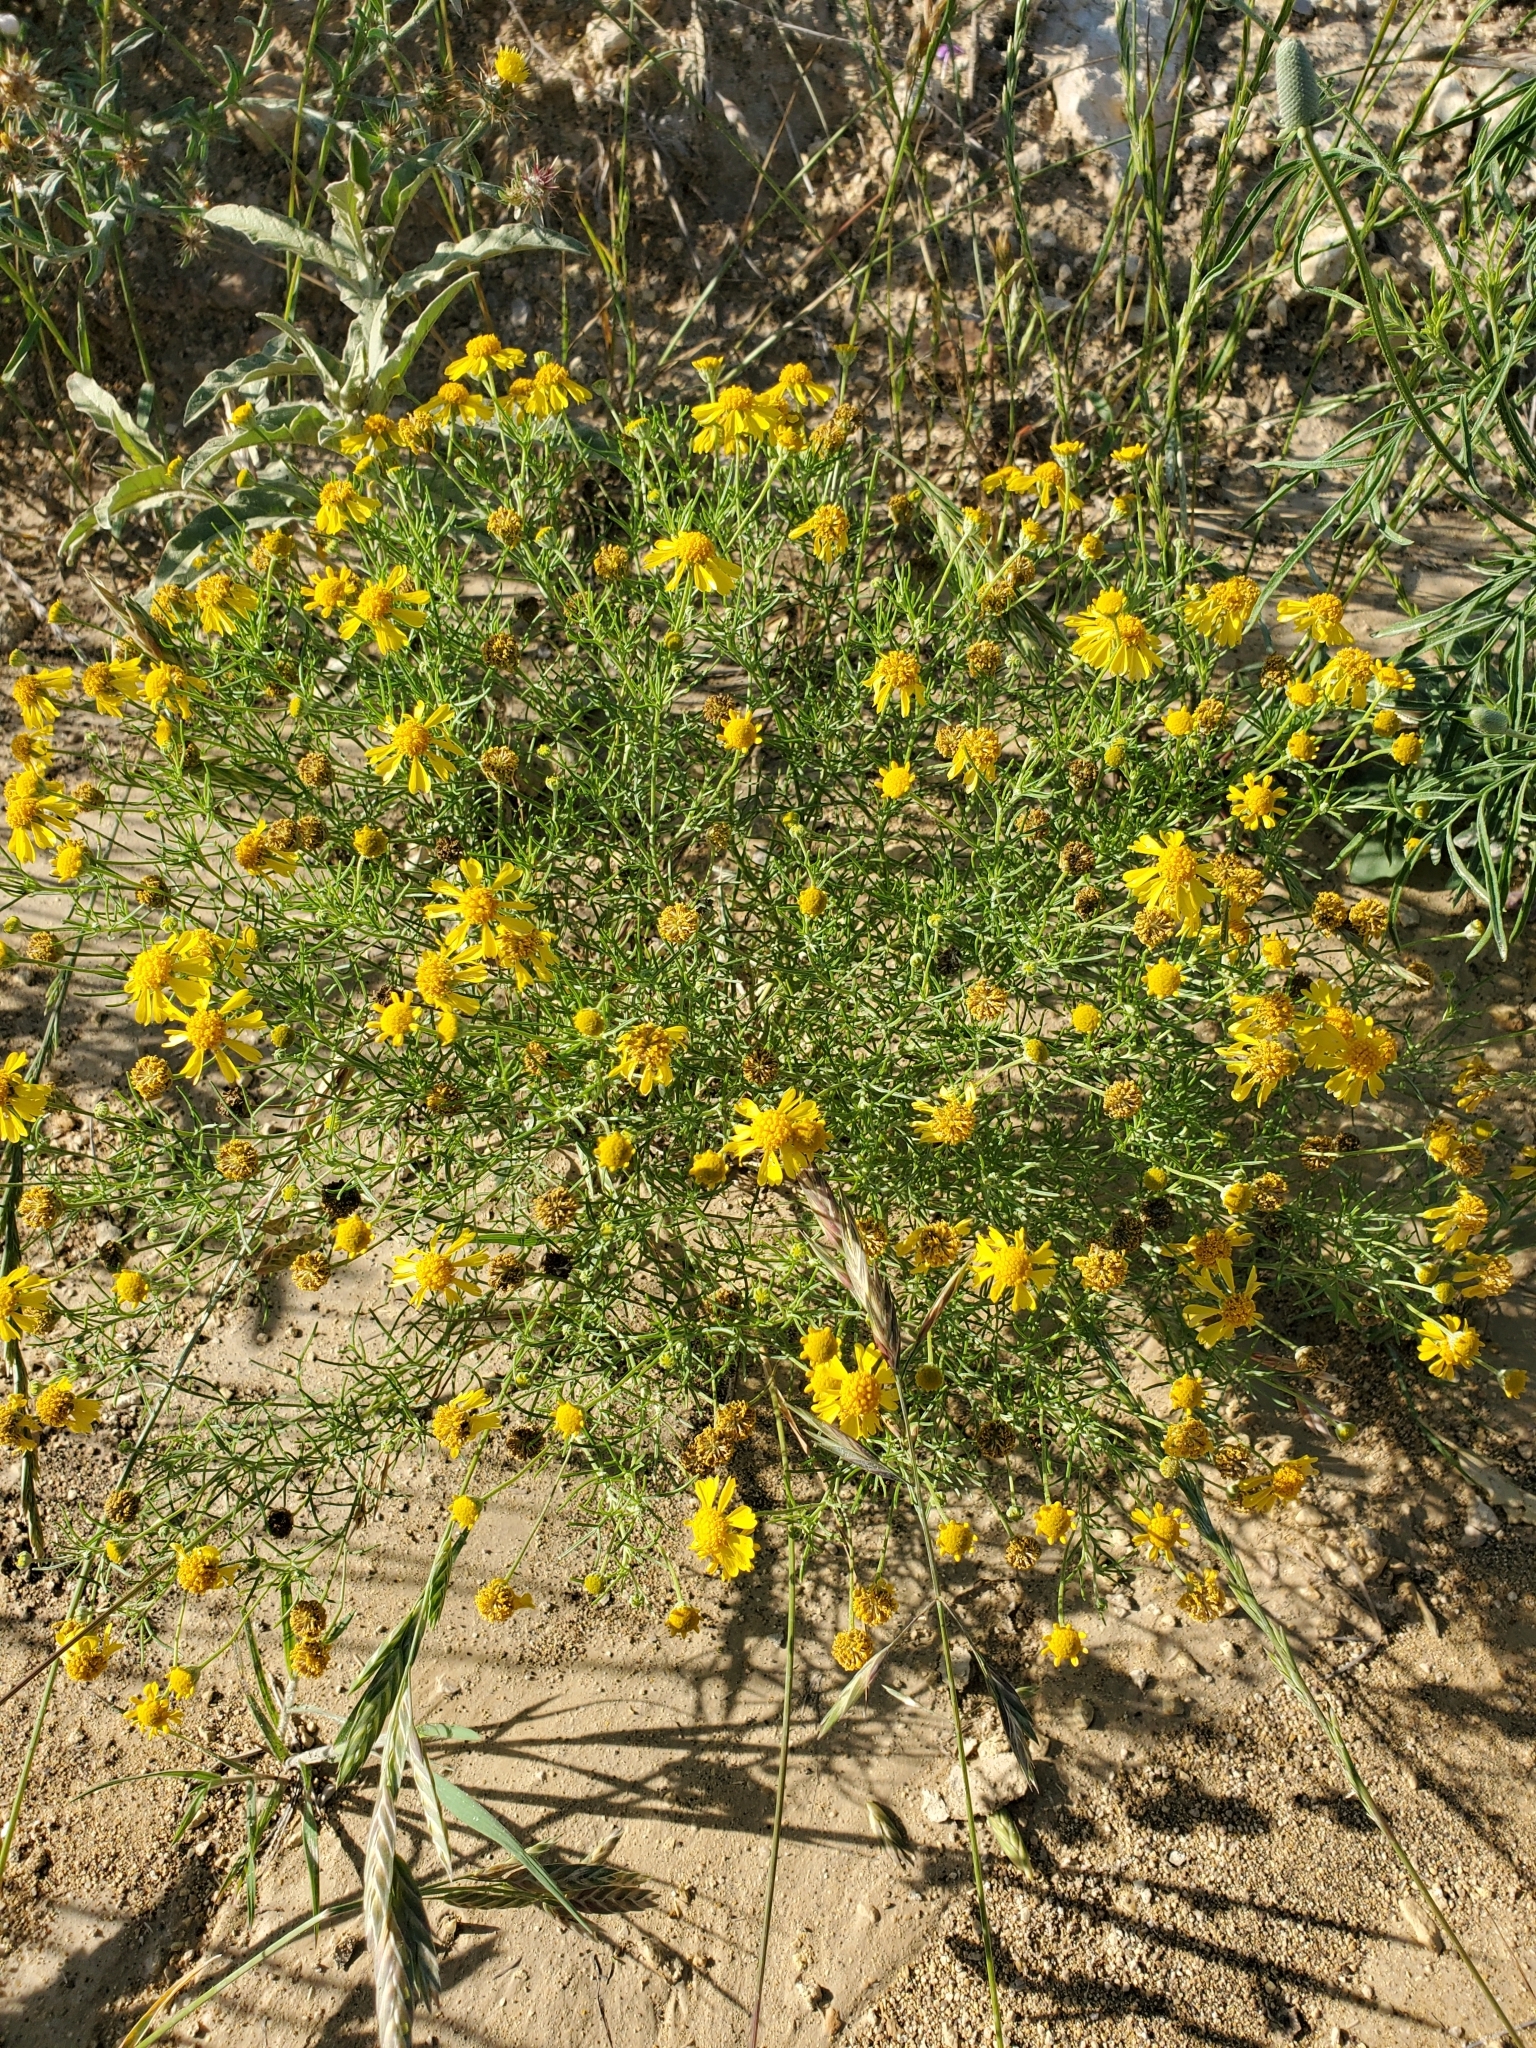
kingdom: Plantae
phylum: Tracheophyta
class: Magnoliopsida
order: Asterales
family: Asteraceae
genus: Hymenoxys
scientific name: Hymenoxys odorata
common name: Bitter rubberweed
